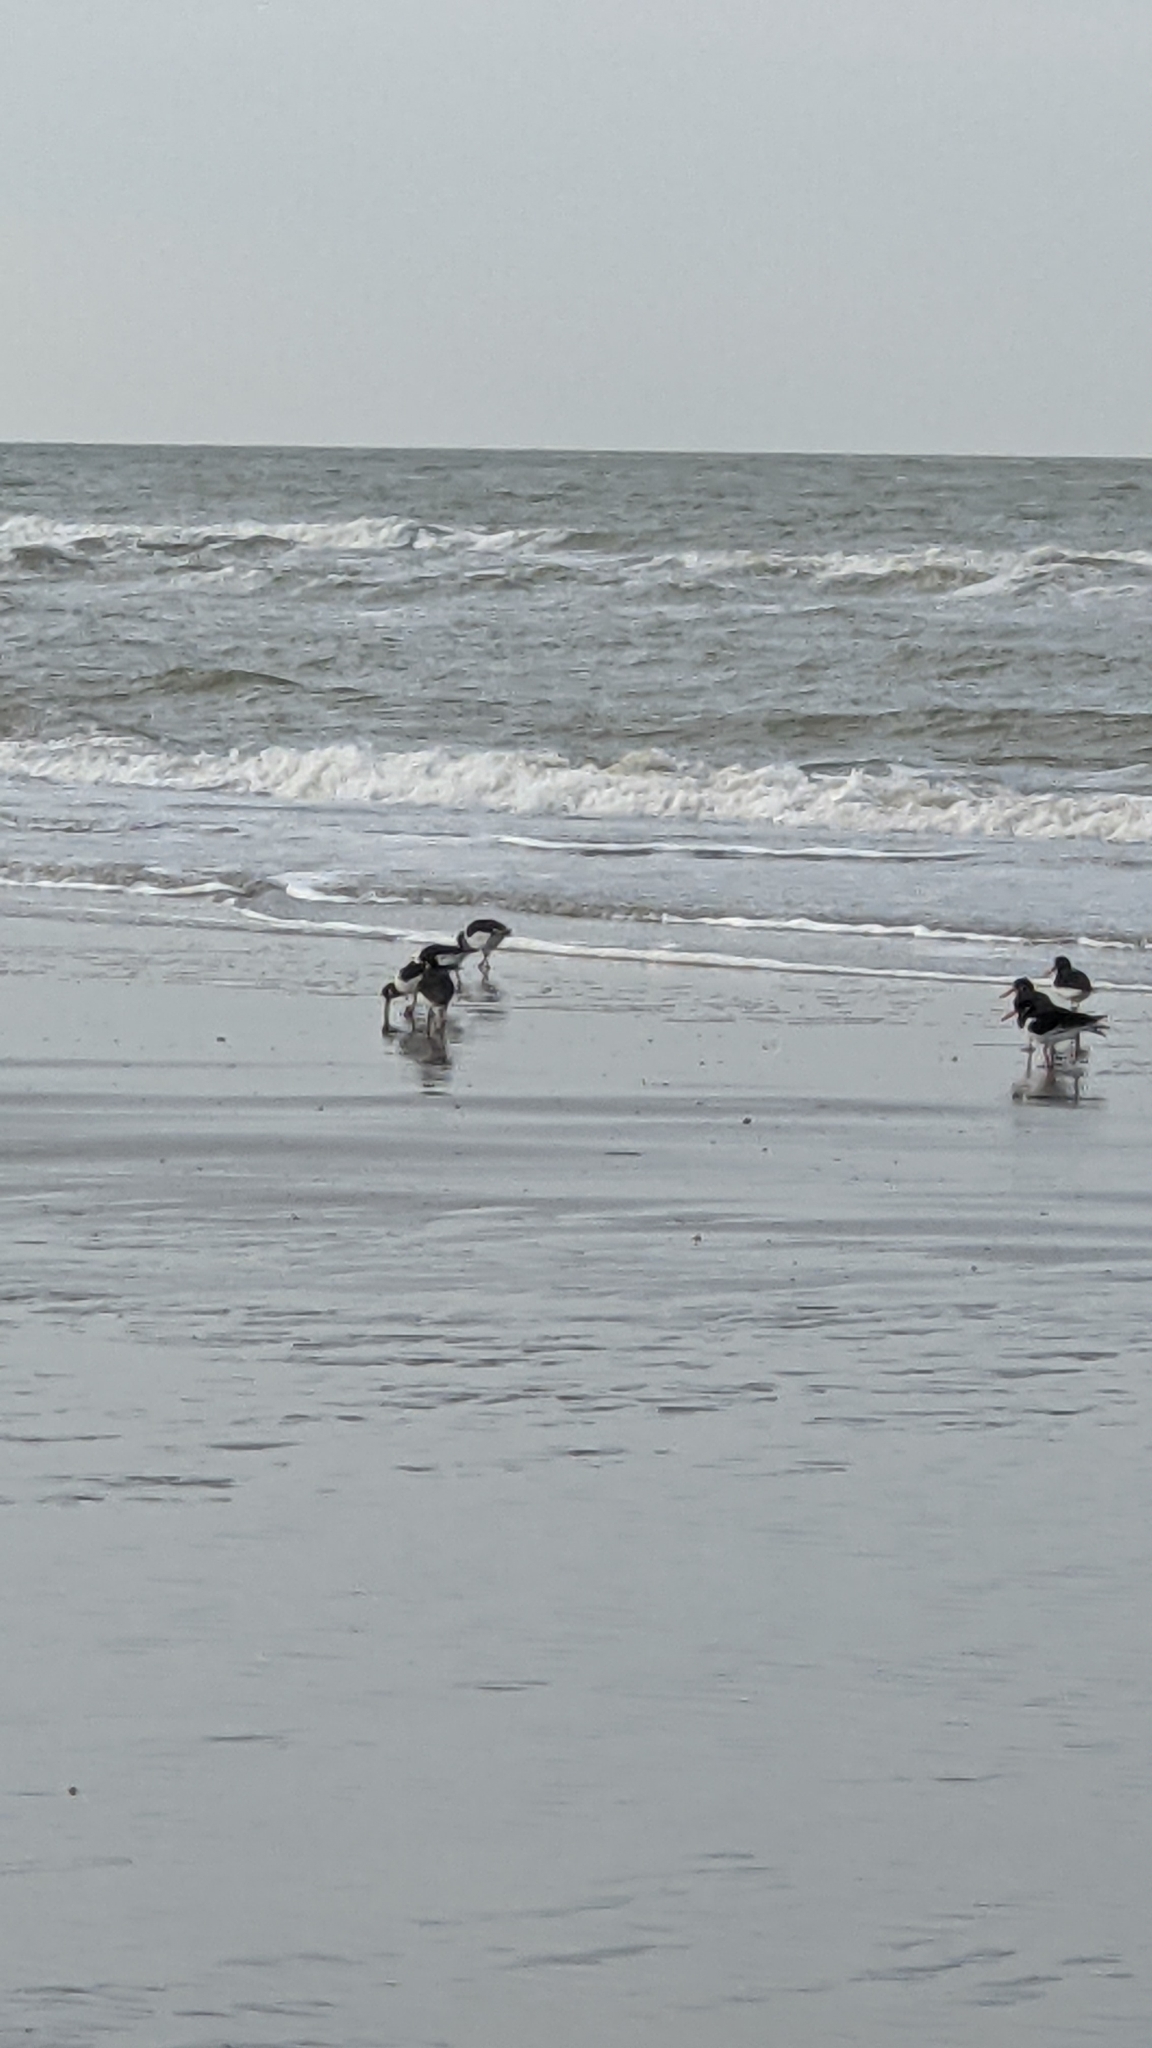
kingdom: Animalia
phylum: Chordata
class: Aves
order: Charadriiformes
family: Haematopodidae
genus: Haematopus
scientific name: Haematopus ostralegus
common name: Eurasian oystercatcher
